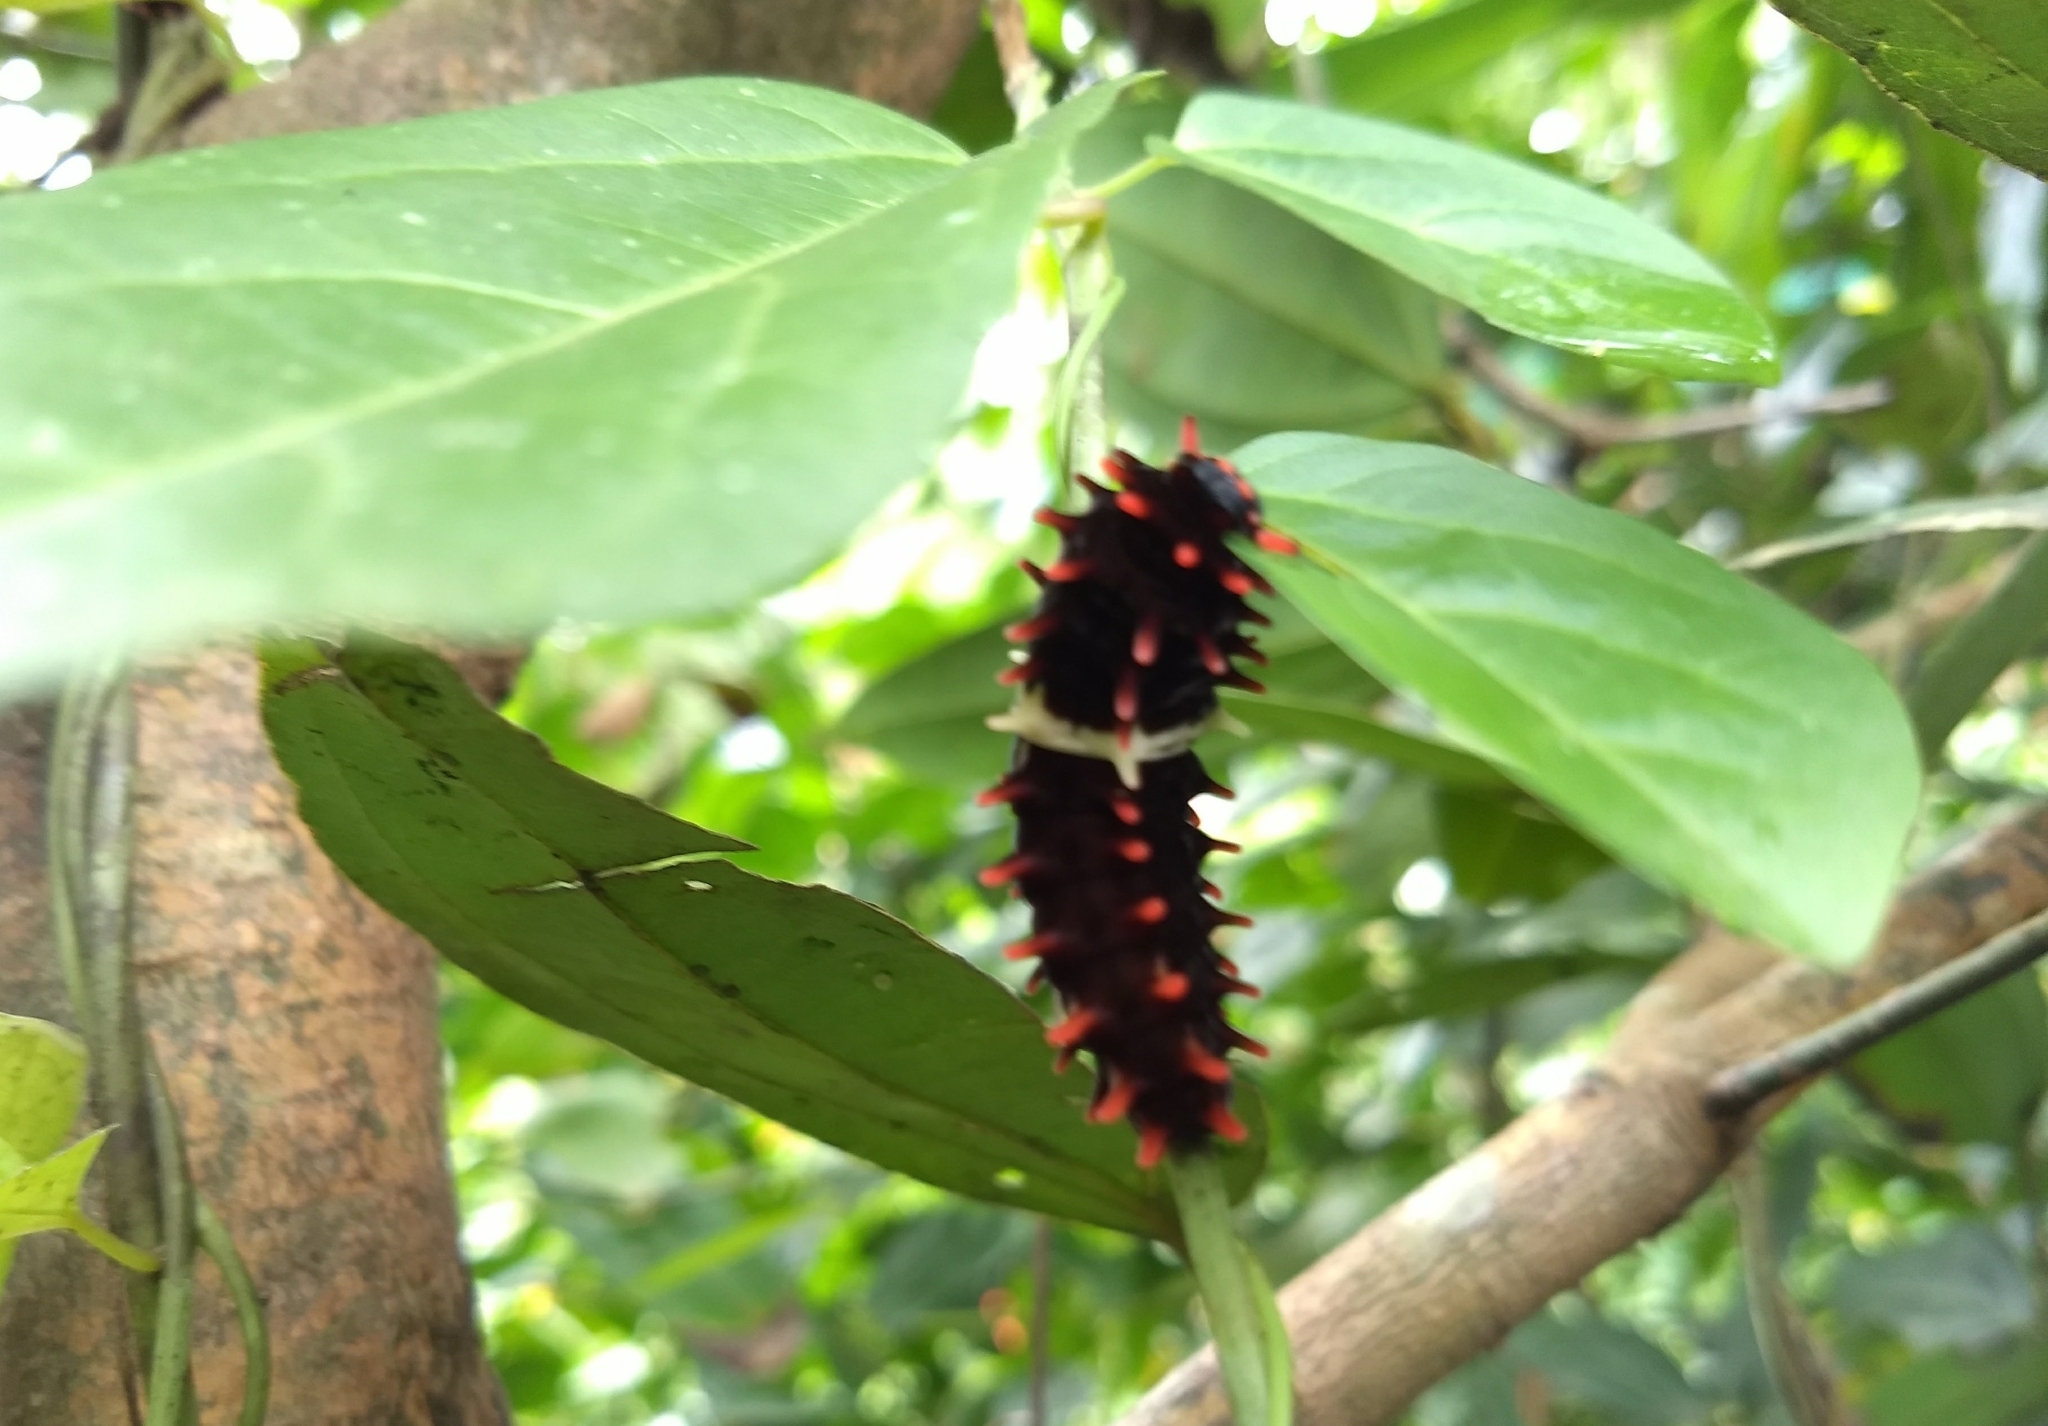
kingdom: Animalia
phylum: Arthropoda
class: Insecta
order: Lepidoptera
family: Papilionidae
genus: Pachliopta
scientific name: Pachliopta aristolochiae
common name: Common rose
